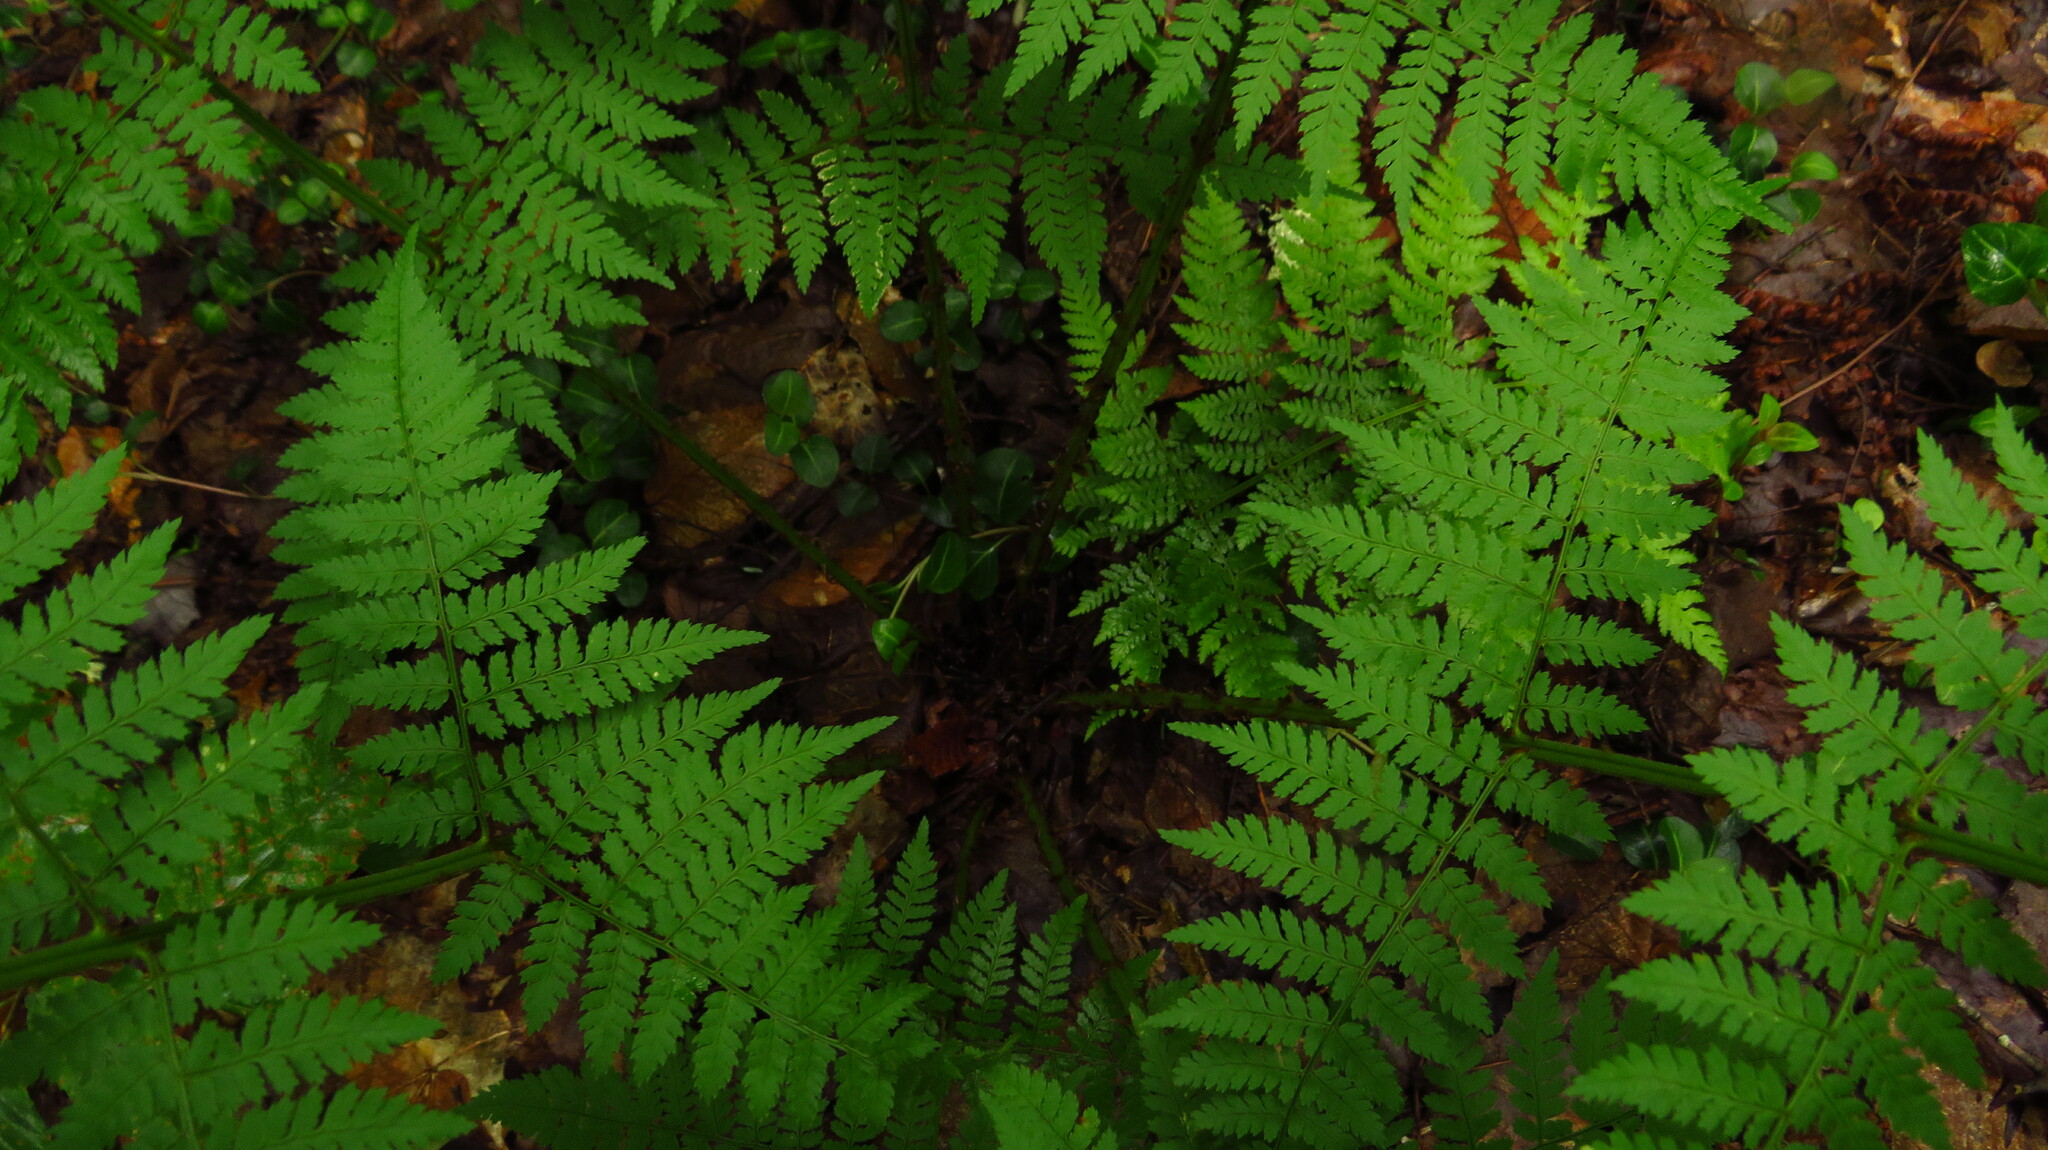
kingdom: Plantae
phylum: Tracheophyta
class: Polypodiopsida
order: Polypodiales
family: Dryopteridaceae
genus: Dryopteris
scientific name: Dryopteris intermedia
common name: Evergreen wood fern
